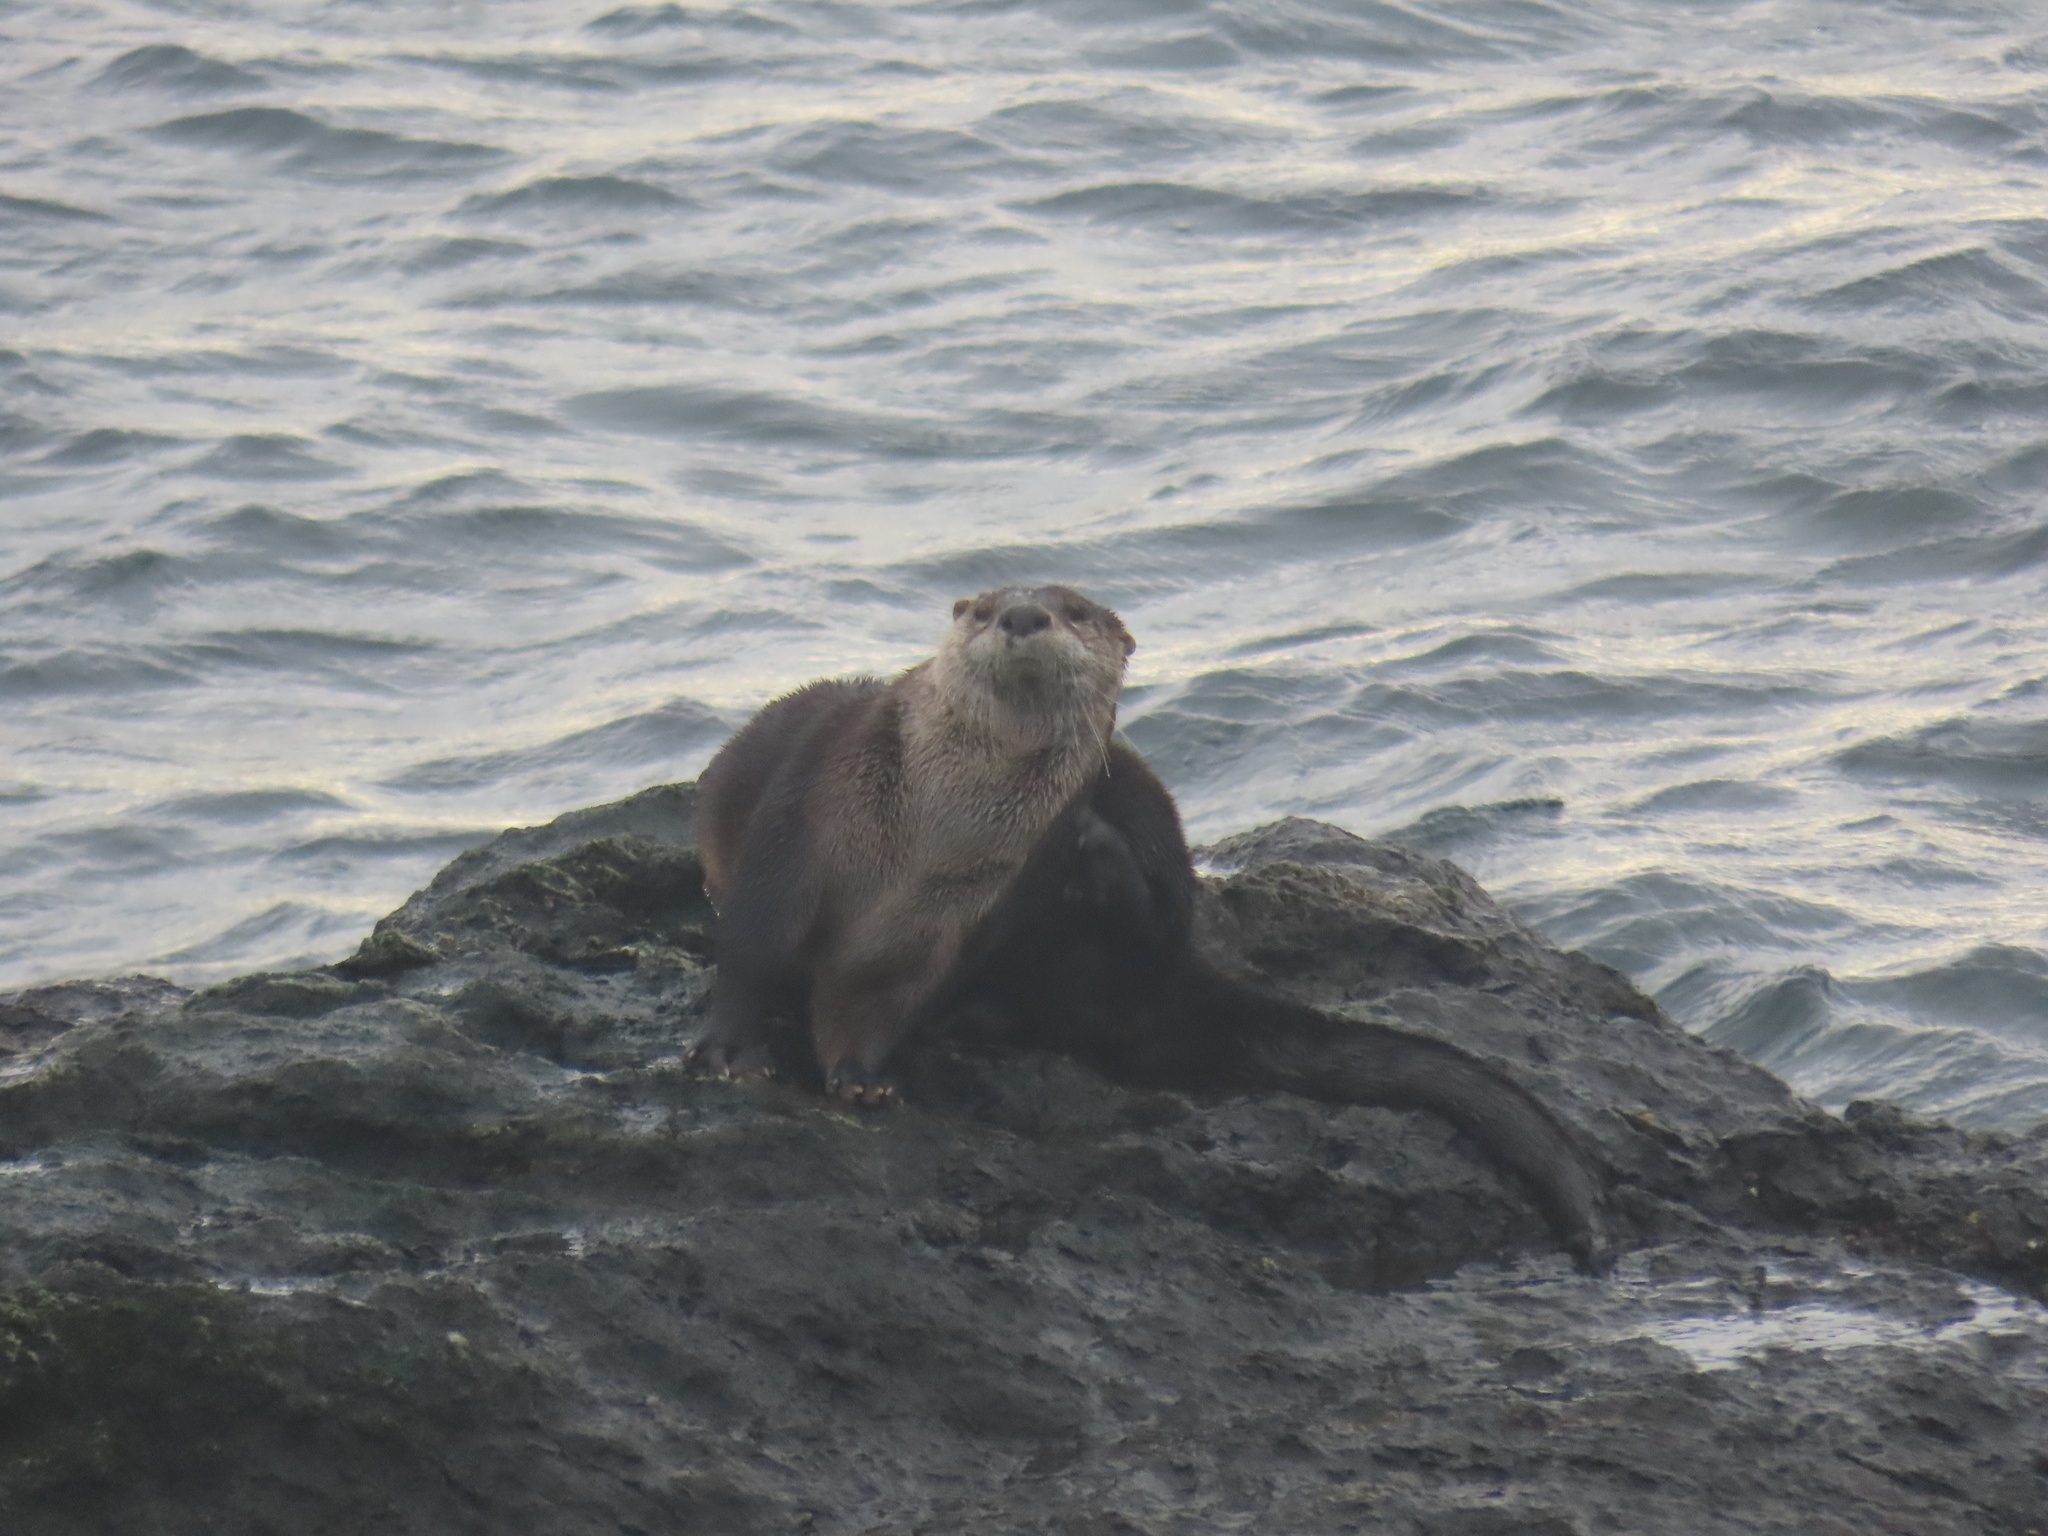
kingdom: Animalia
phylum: Chordata
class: Mammalia
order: Carnivora
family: Mustelidae
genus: Lontra
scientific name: Lontra canadensis
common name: North american river otter
